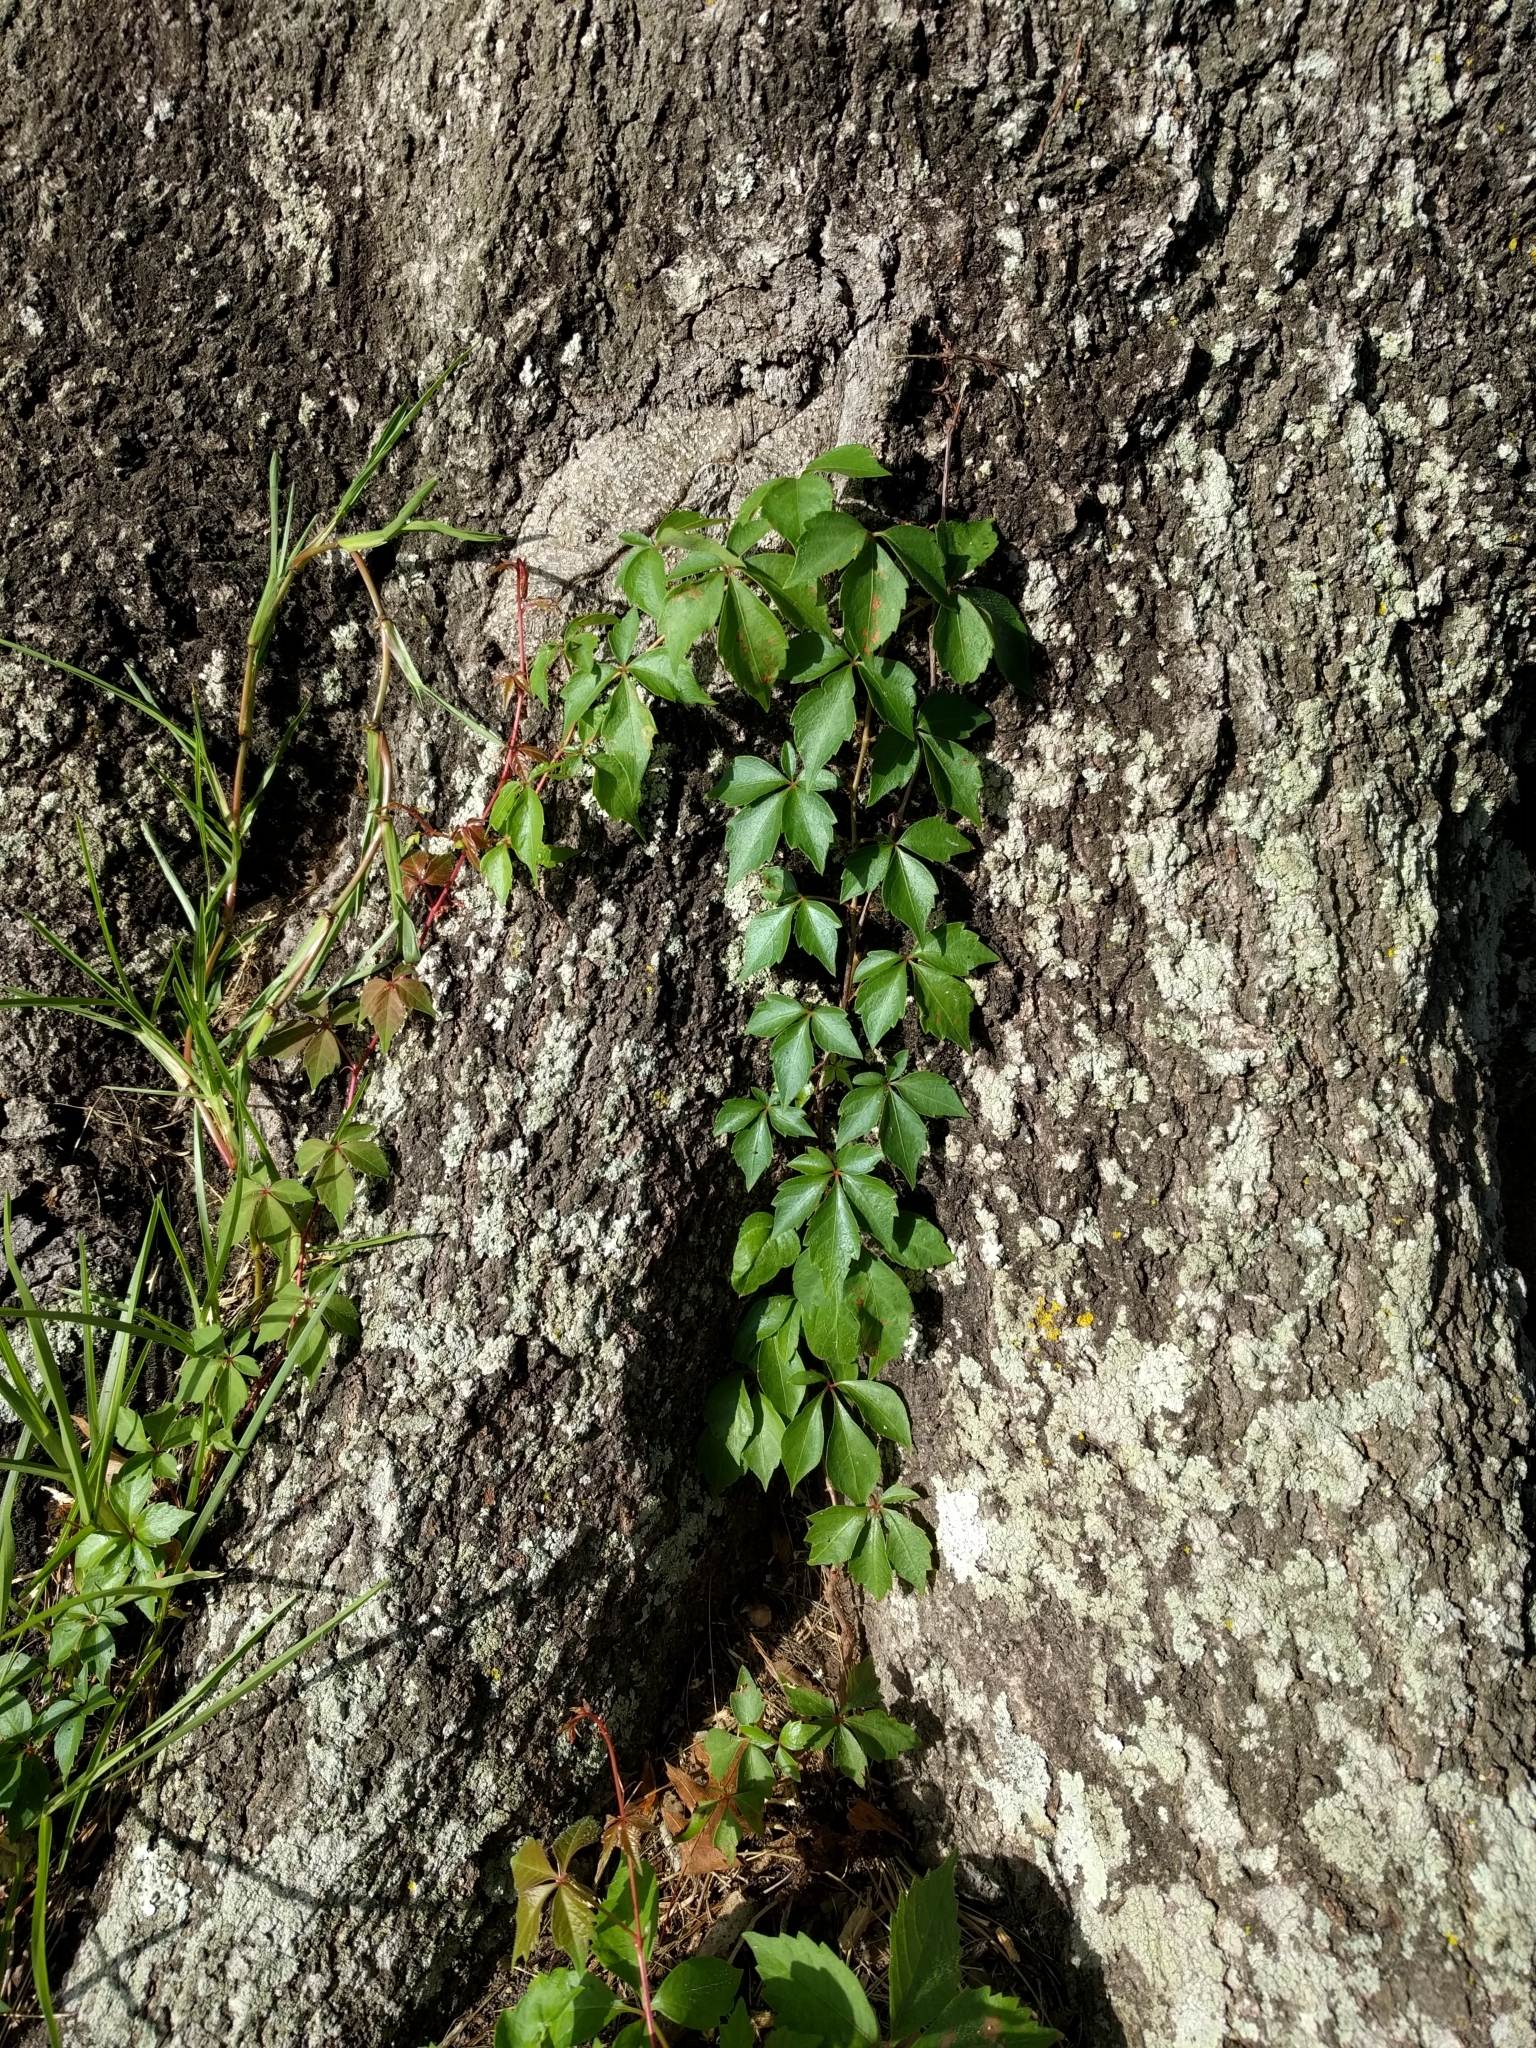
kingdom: Plantae
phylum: Tracheophyta
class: Magnoliopsida
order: Vitales
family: Vitaceae
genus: Parthenocissus
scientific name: Parthenocissus quinquefolia
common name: Virginia-creeper
